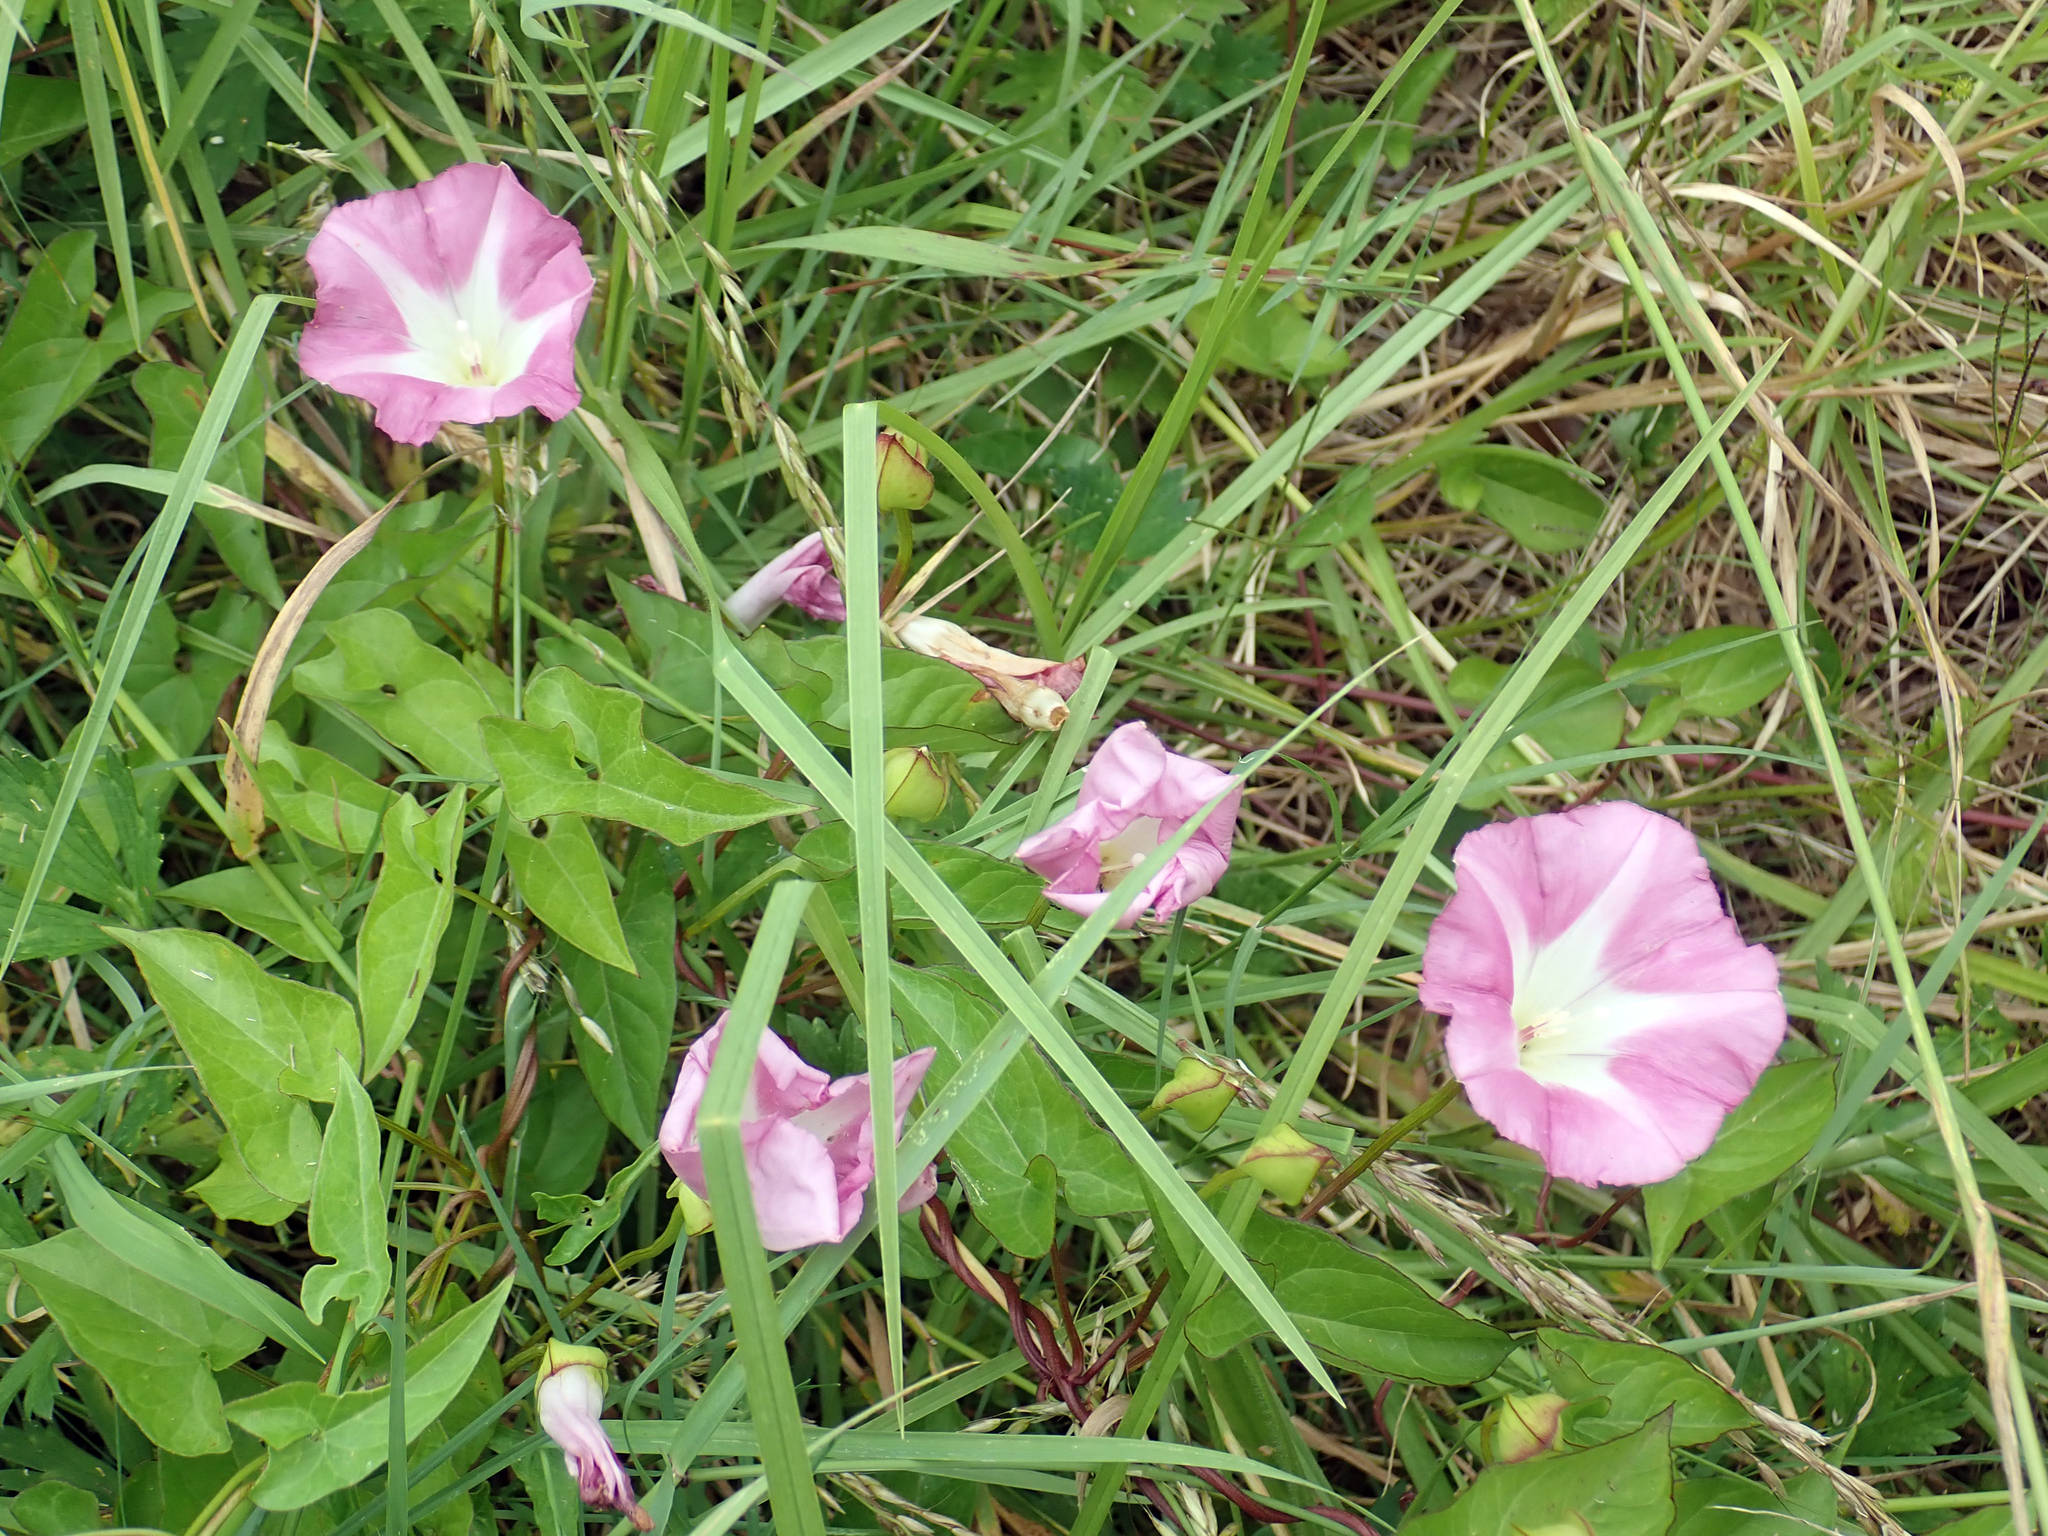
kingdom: Plantae
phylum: Tracheophyta
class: Magnoliopsida
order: Solanales
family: Convolvulaceae
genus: Calystegia
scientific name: Calystegia sepium
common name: Hedge bindweed
